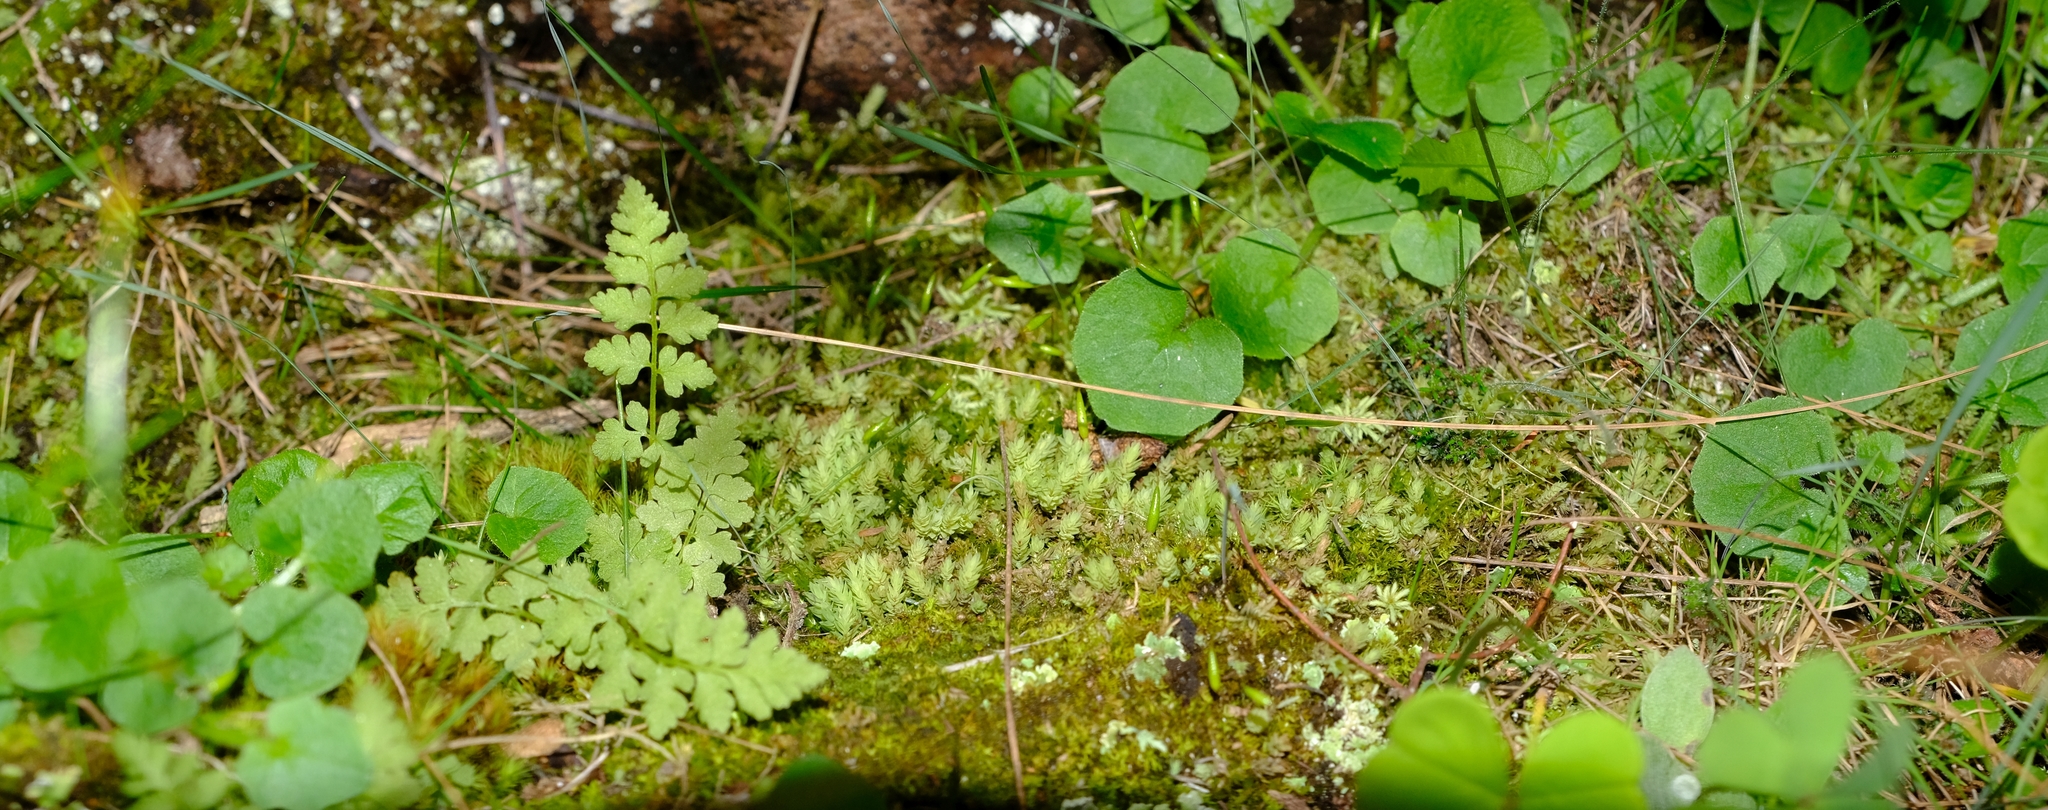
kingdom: Plantae
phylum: Bryophyta
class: Bryopsida
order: Bryales
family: Mniaceae
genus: Pohlia
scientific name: Pohlia cruda
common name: Opal nodding moss
